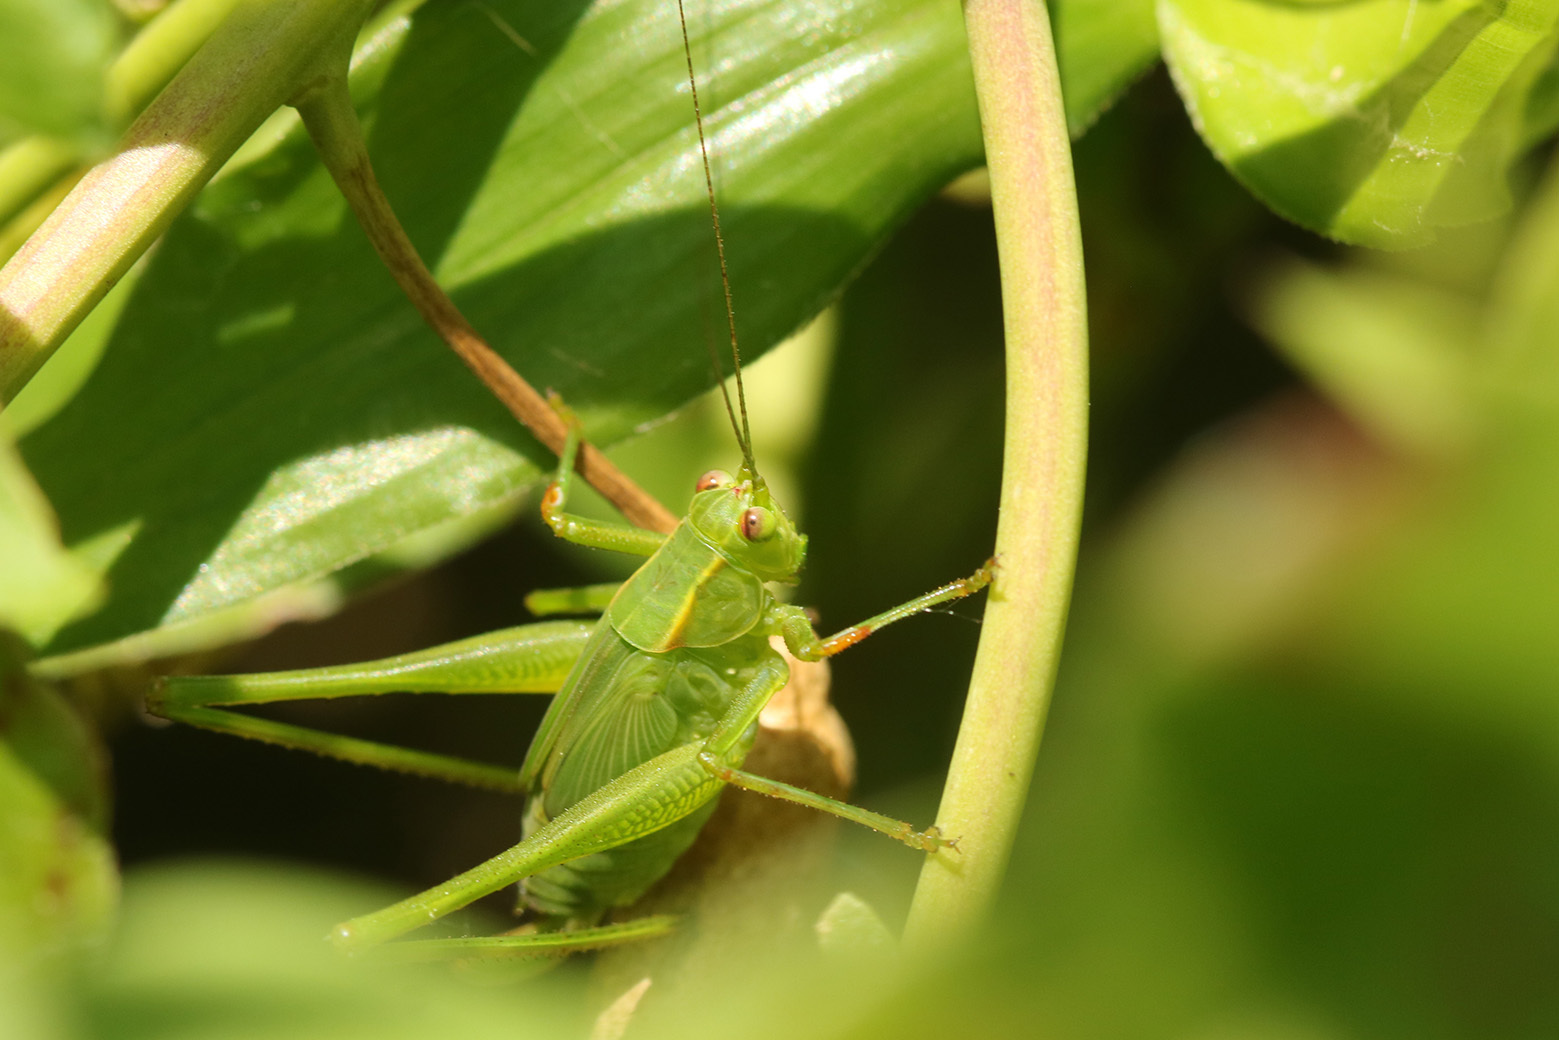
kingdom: Animalia
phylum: Arthropoda
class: Insecta
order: Orthoptera
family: Tettigoniidae
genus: Ligocatinus
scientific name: Ligocatinus spinatus
